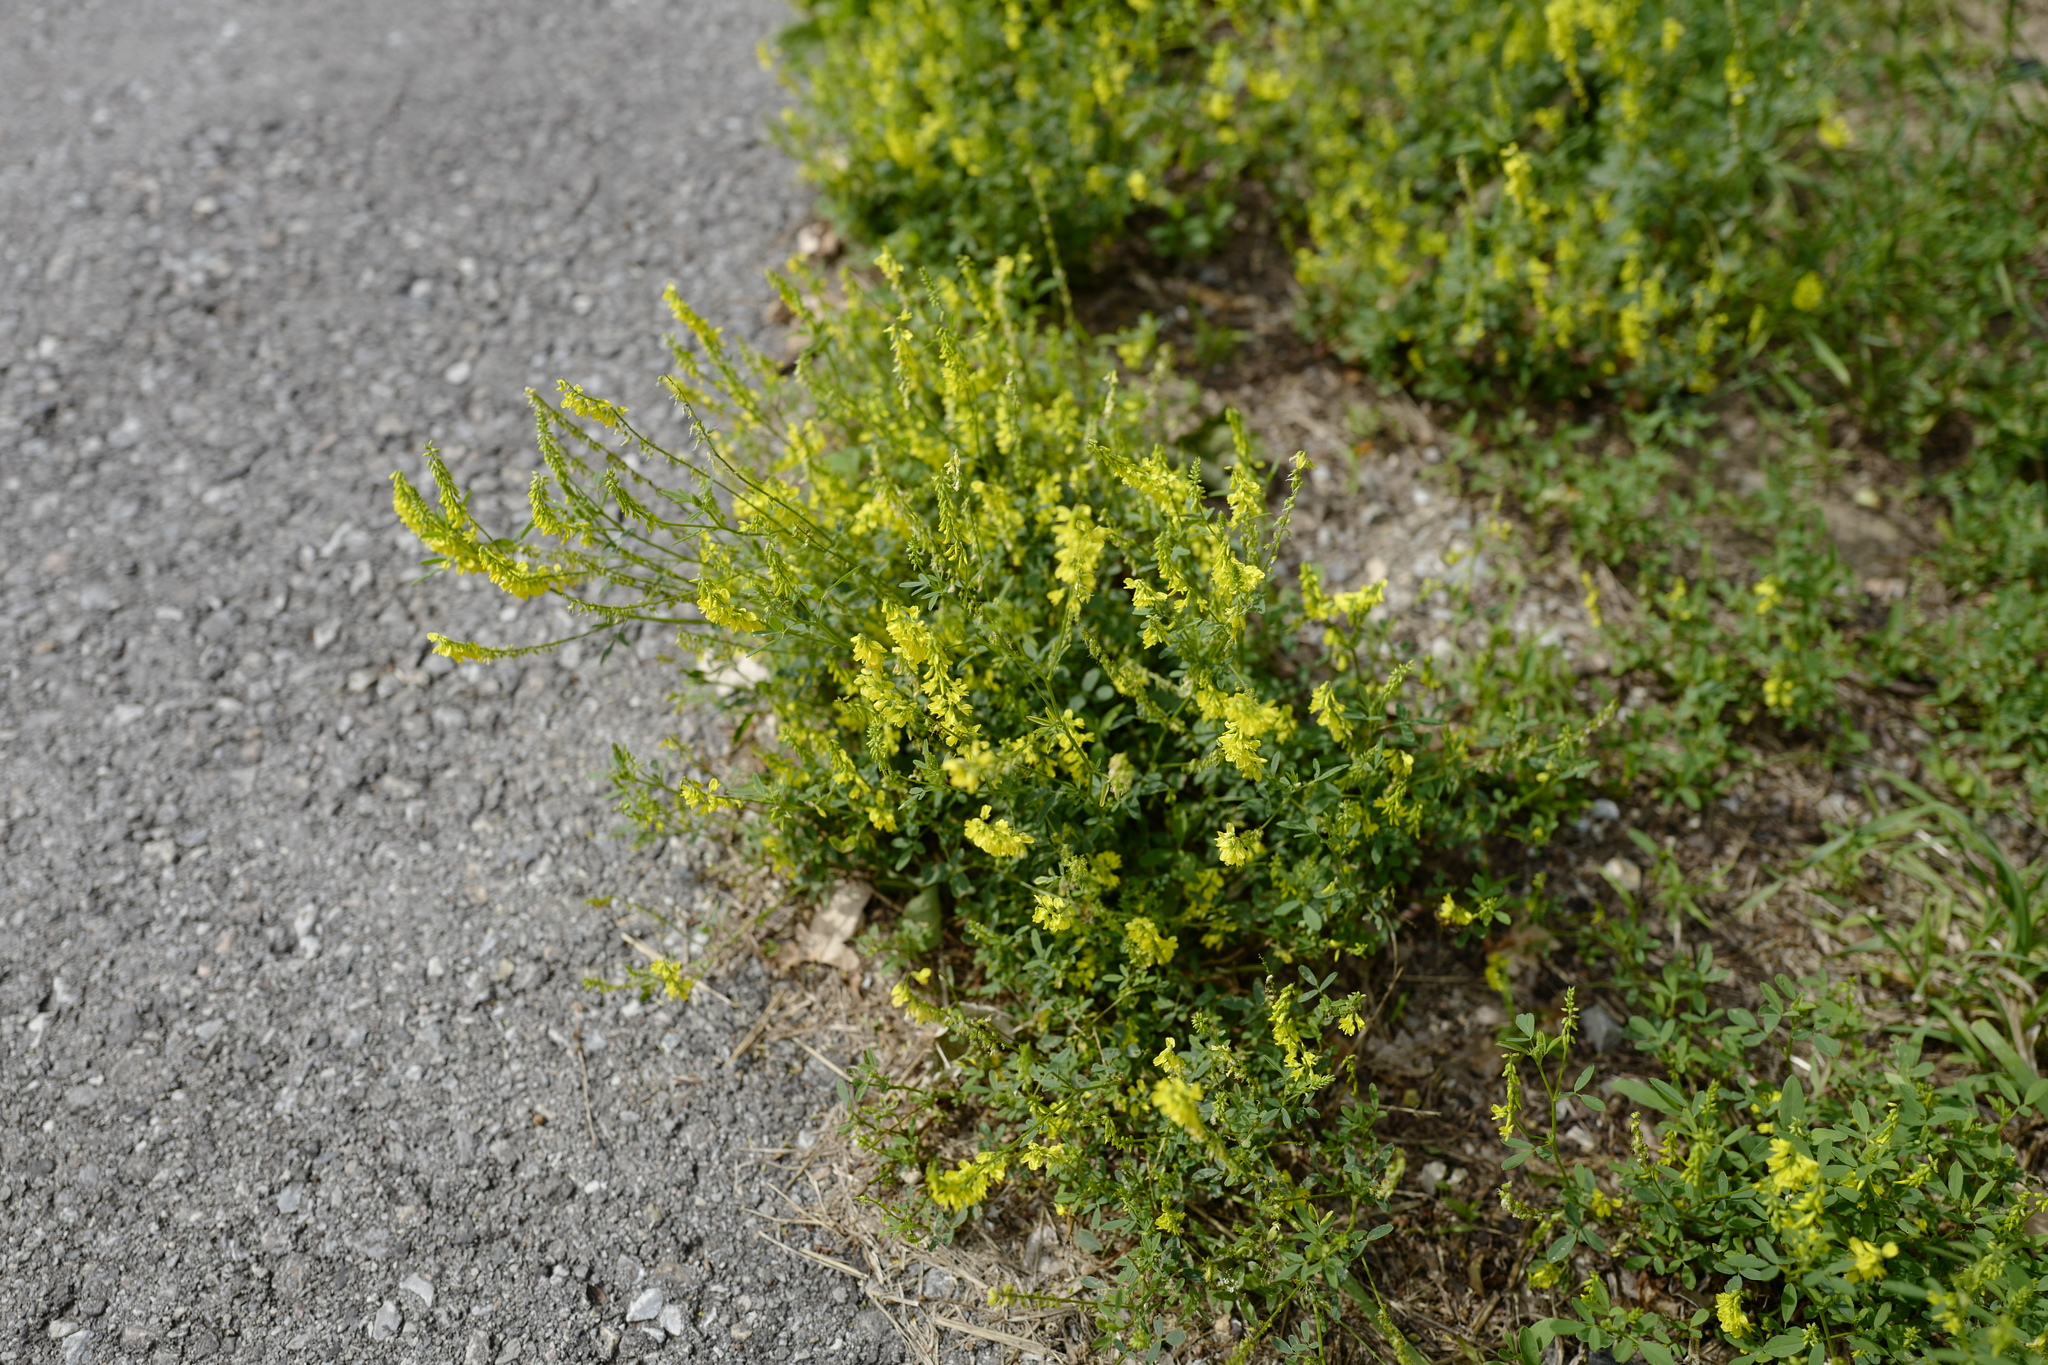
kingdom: Plantae
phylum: Tracheophyta
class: Magnoliopsida
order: Fabales
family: Fabaceae
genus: Melilotus
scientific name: Melilotus officinalis
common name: Sweetclover
